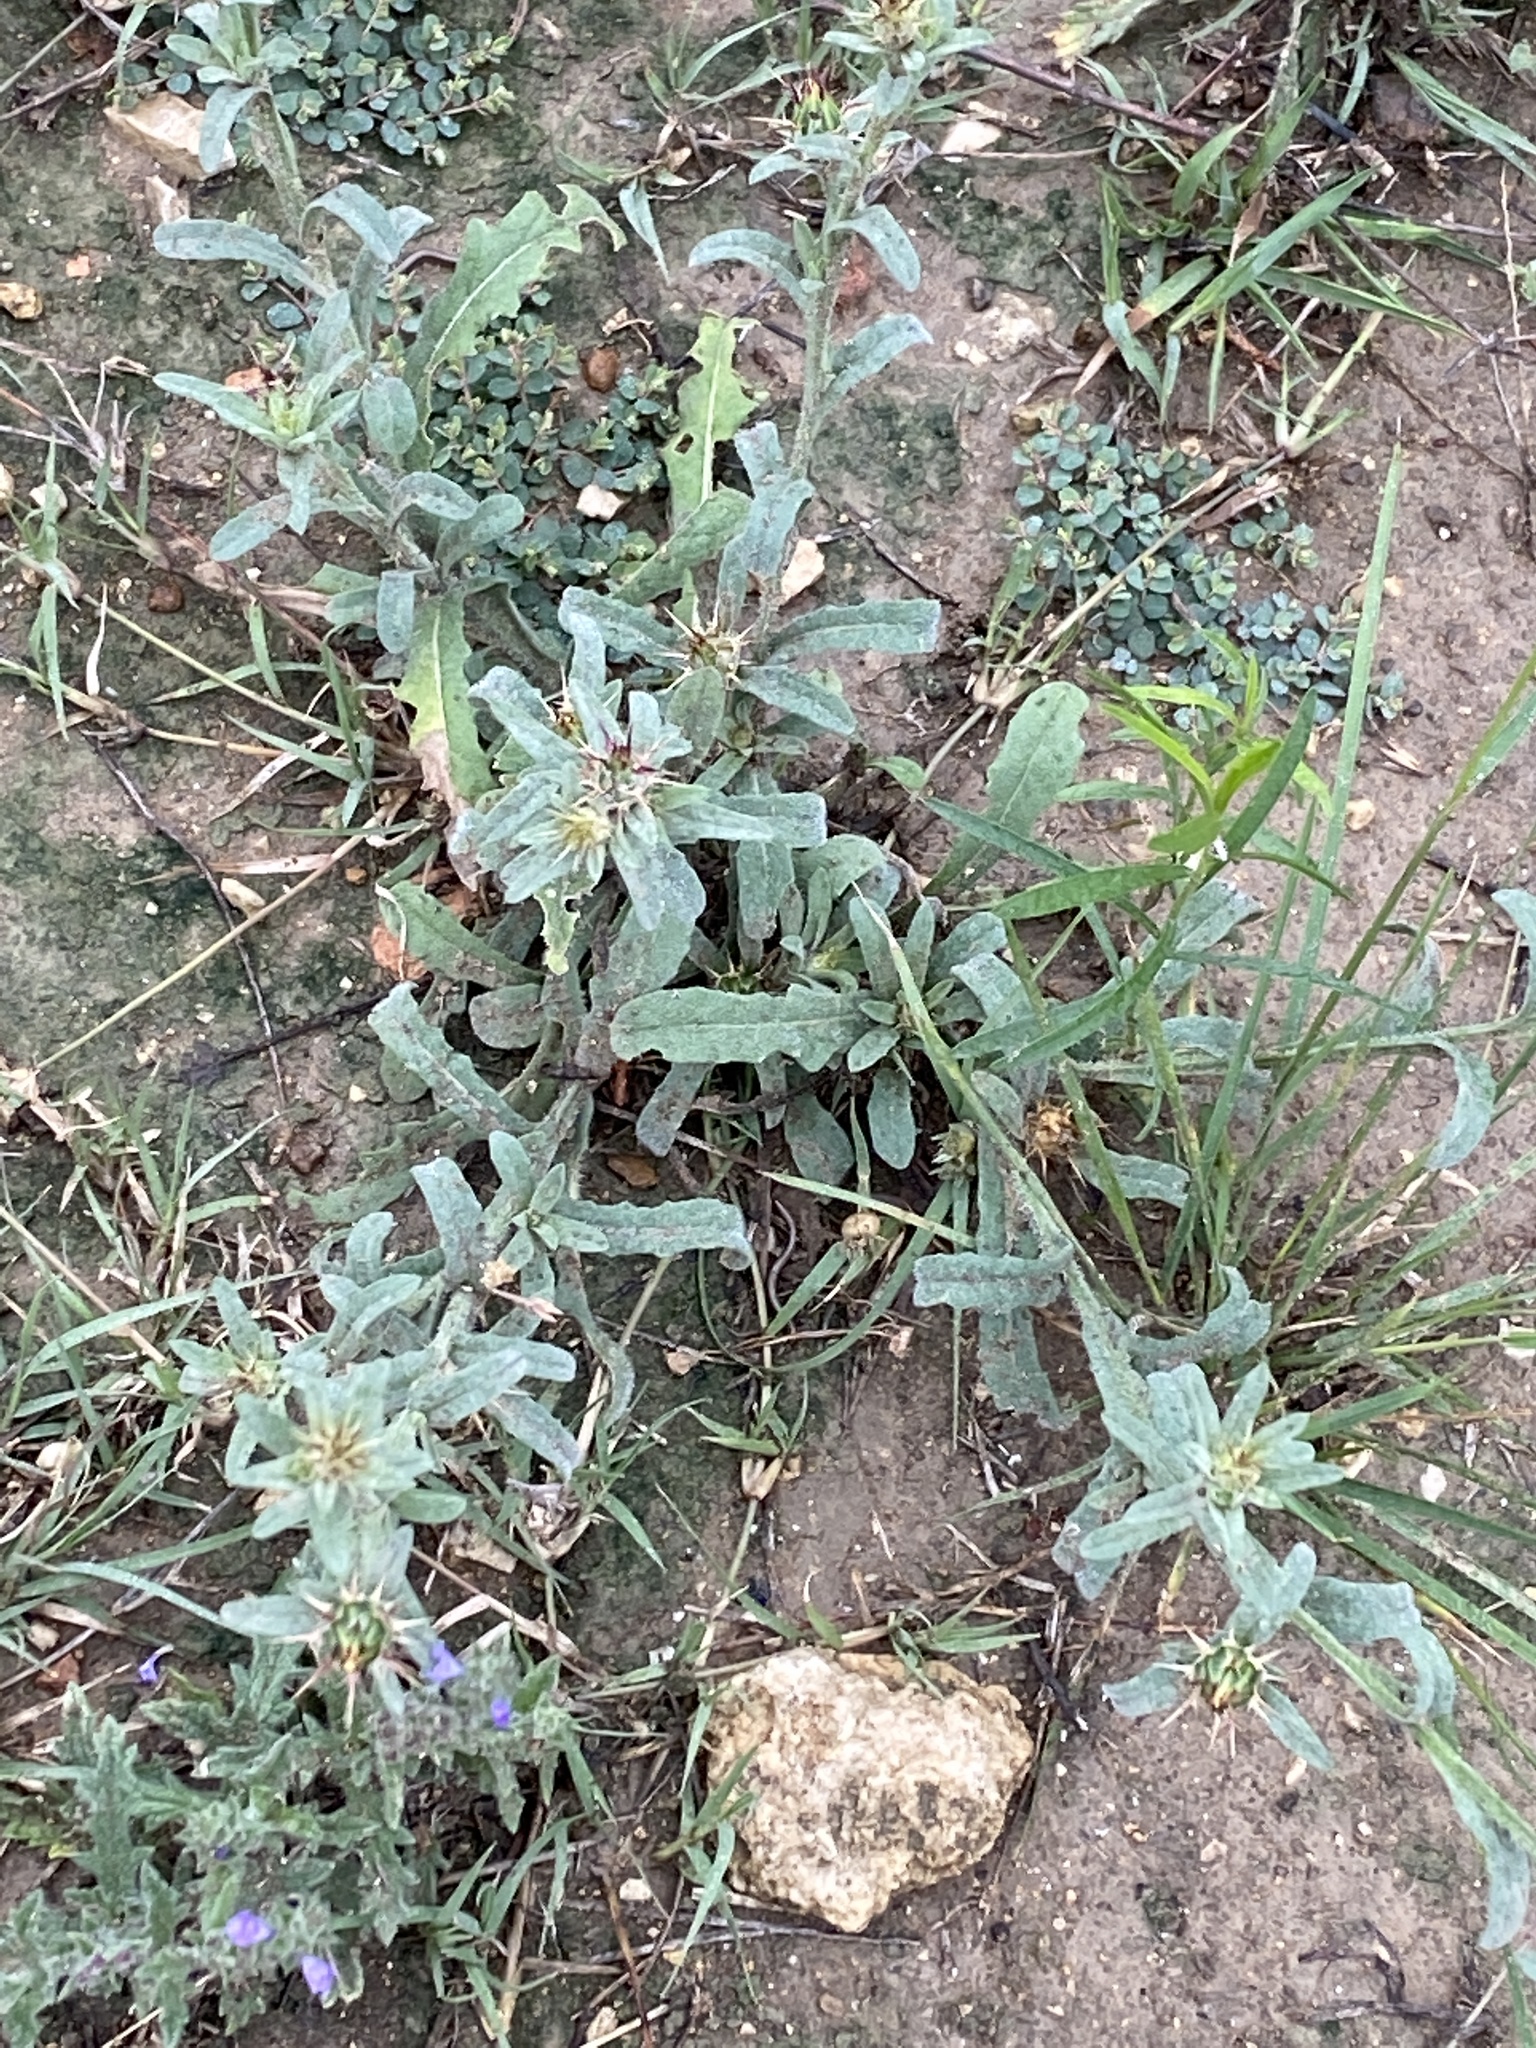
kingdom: Plantae
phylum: Tracheophyta
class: Magnoliopsida
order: Asterales
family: Asteraceae
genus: Centaurea
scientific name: Centaurea melitensis
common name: Maltese star-thistle
